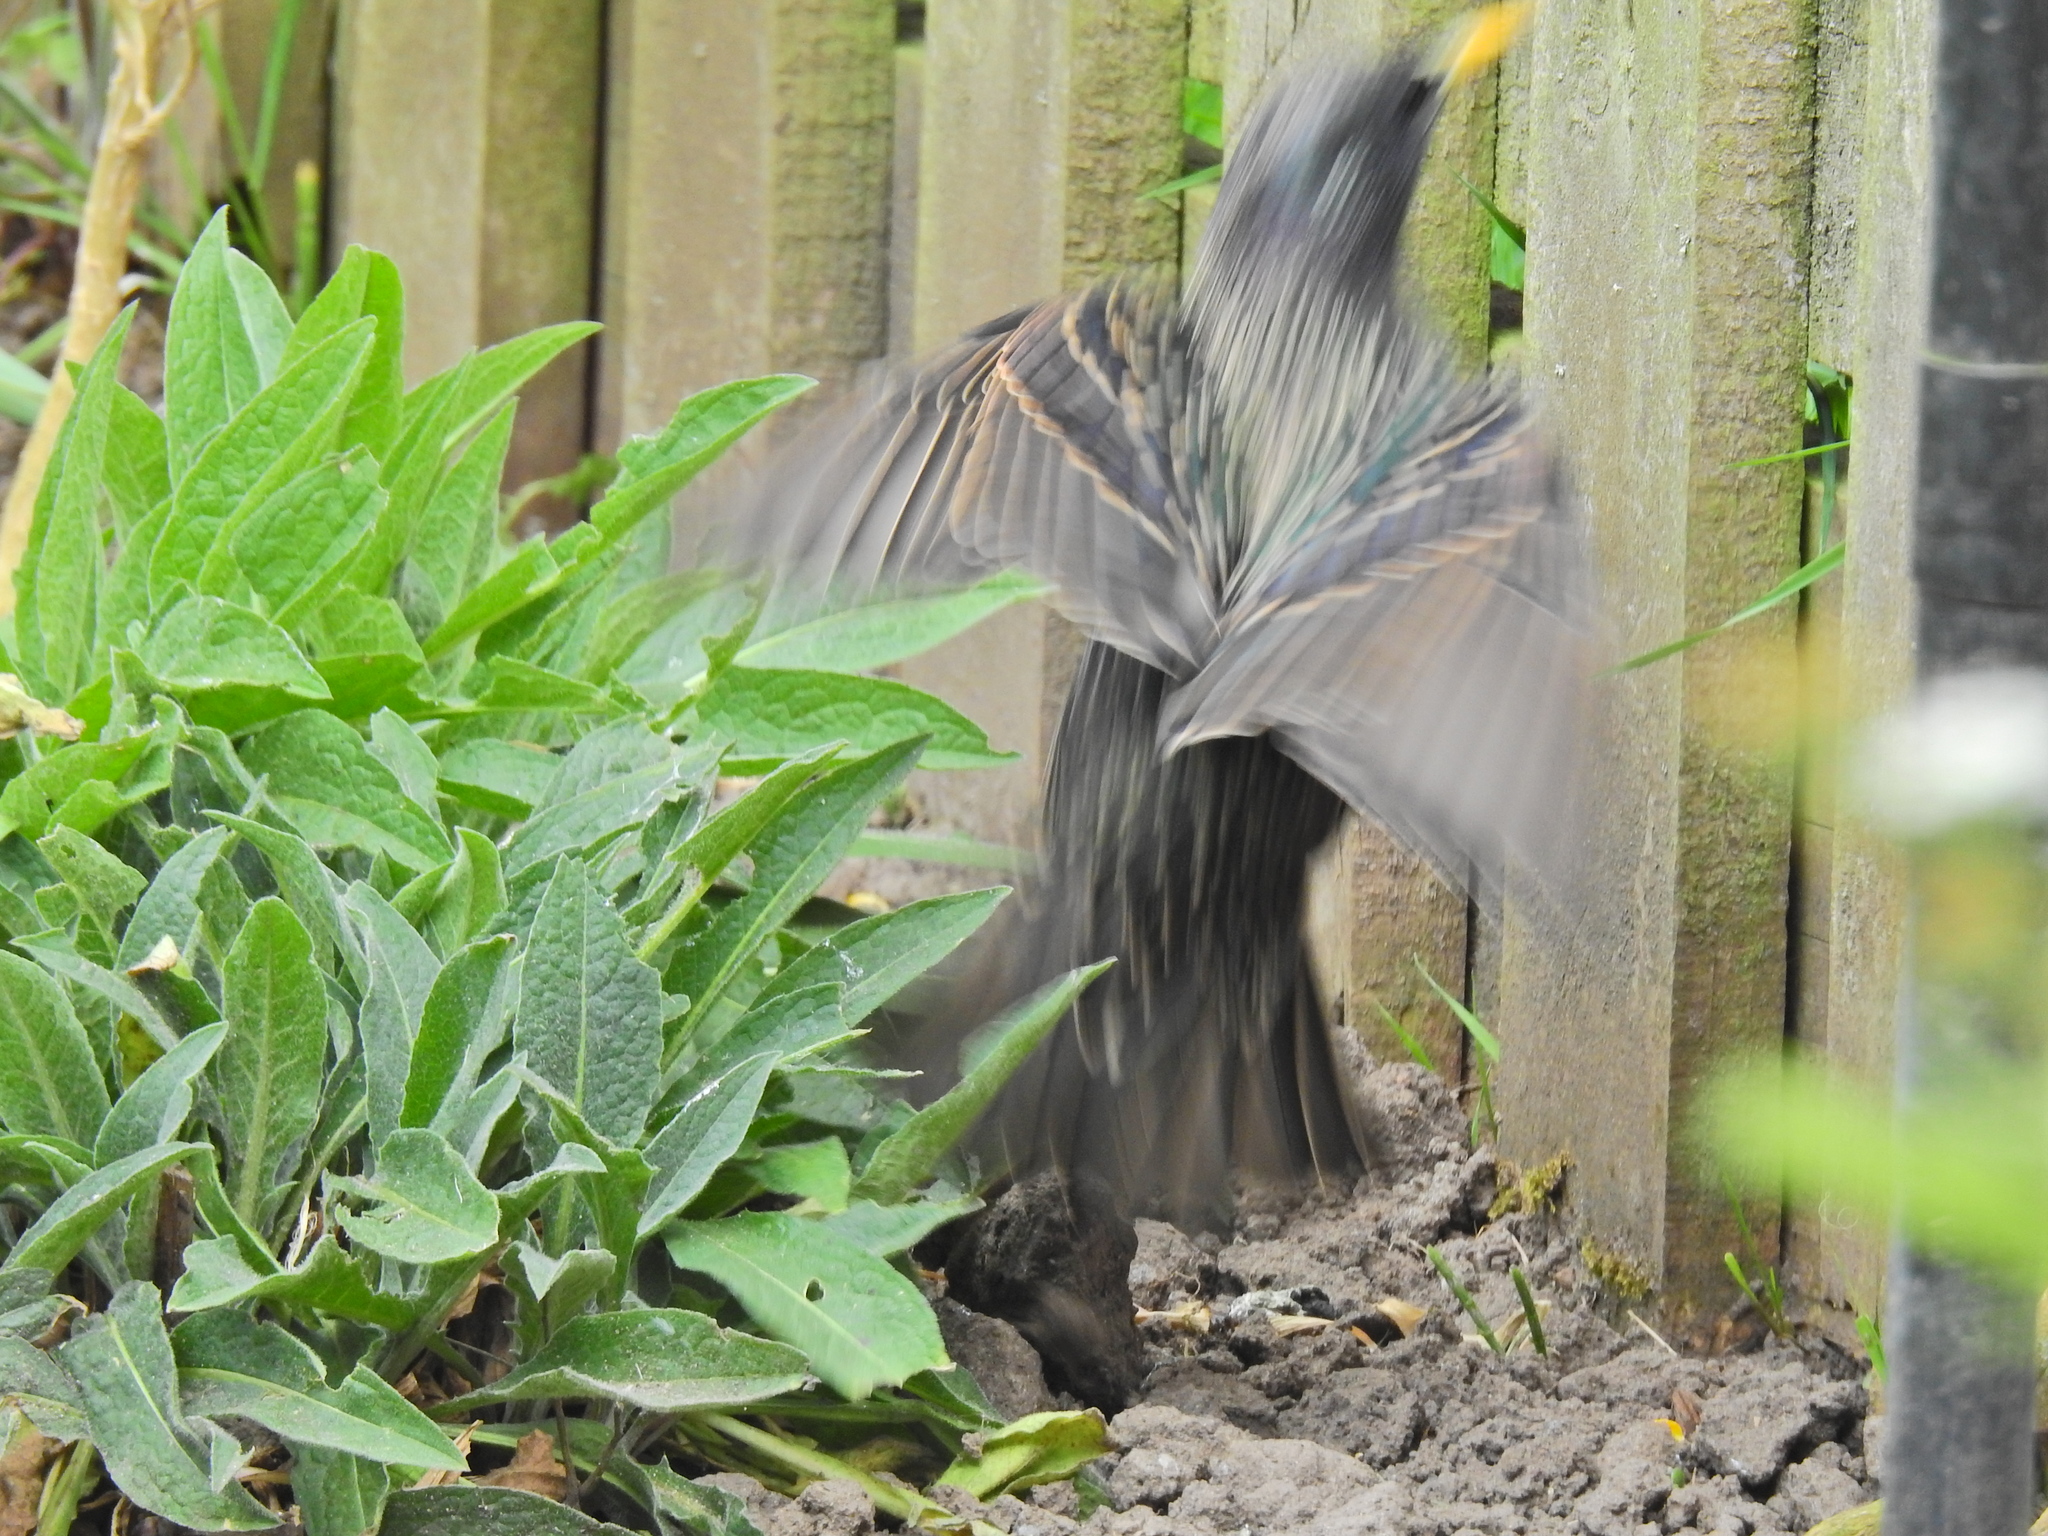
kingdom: Animalia
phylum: Chordata
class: Aves
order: Passeriformes
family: Sturnidae
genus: Sturnus
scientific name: Sturnus vulgaris
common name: Common starling
